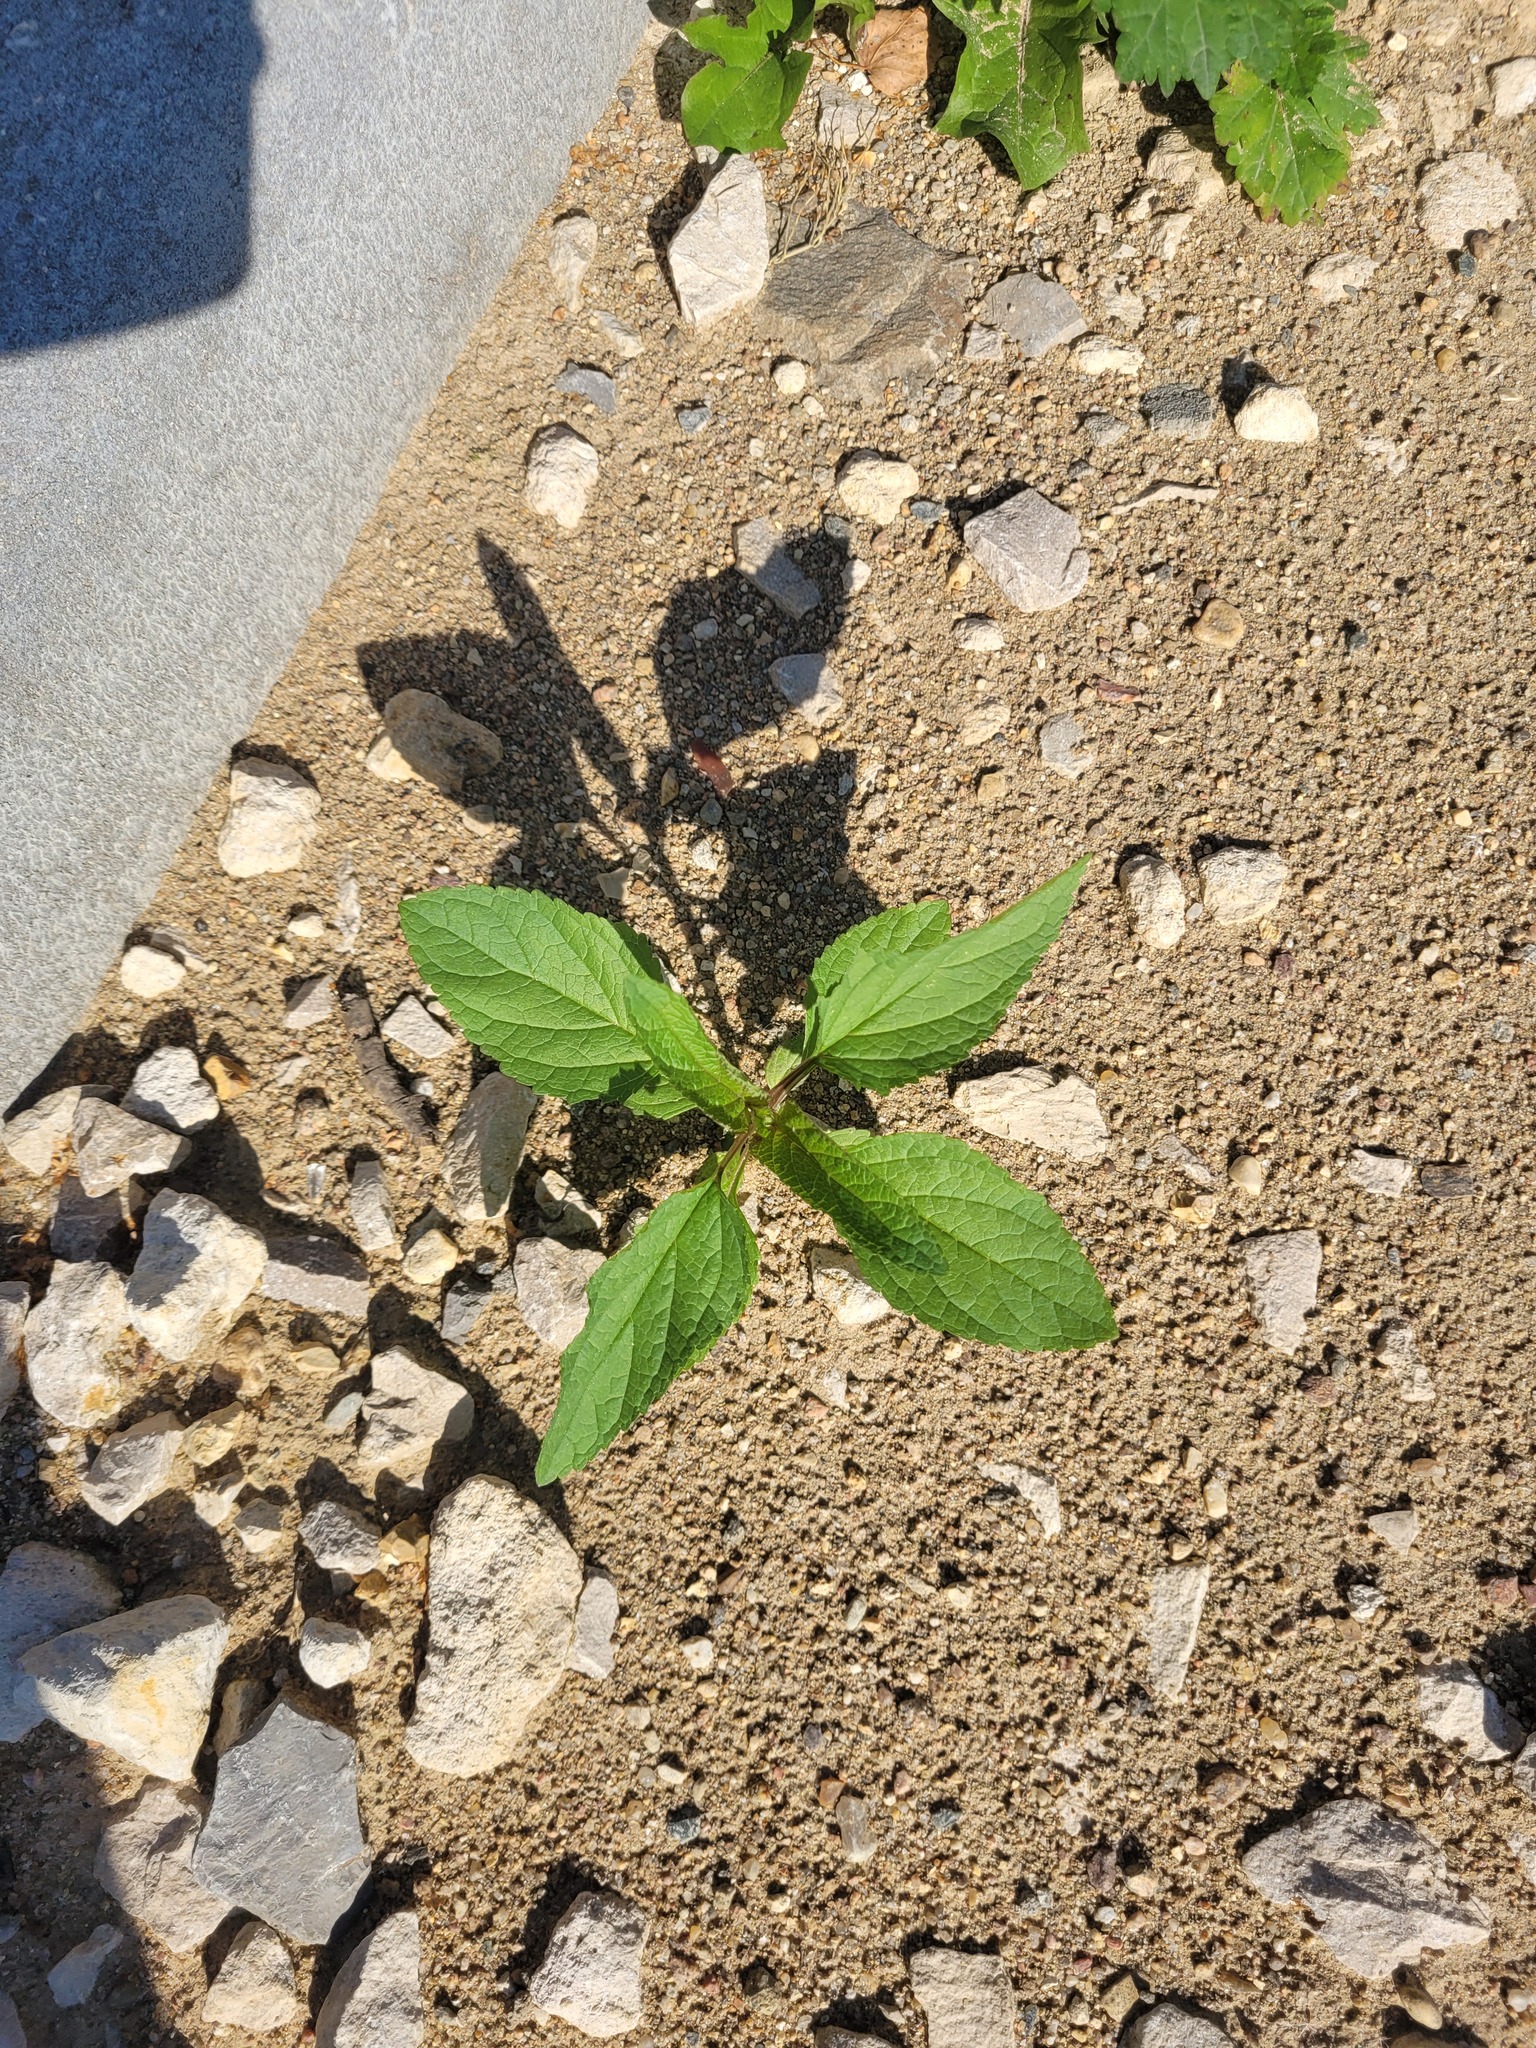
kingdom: Plantae
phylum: Tracheophyta
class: Magnoliopsida
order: Lamiales
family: Scrophulariaceae
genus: Scrophularia
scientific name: Scrophularia nodosa
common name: Common figwort
